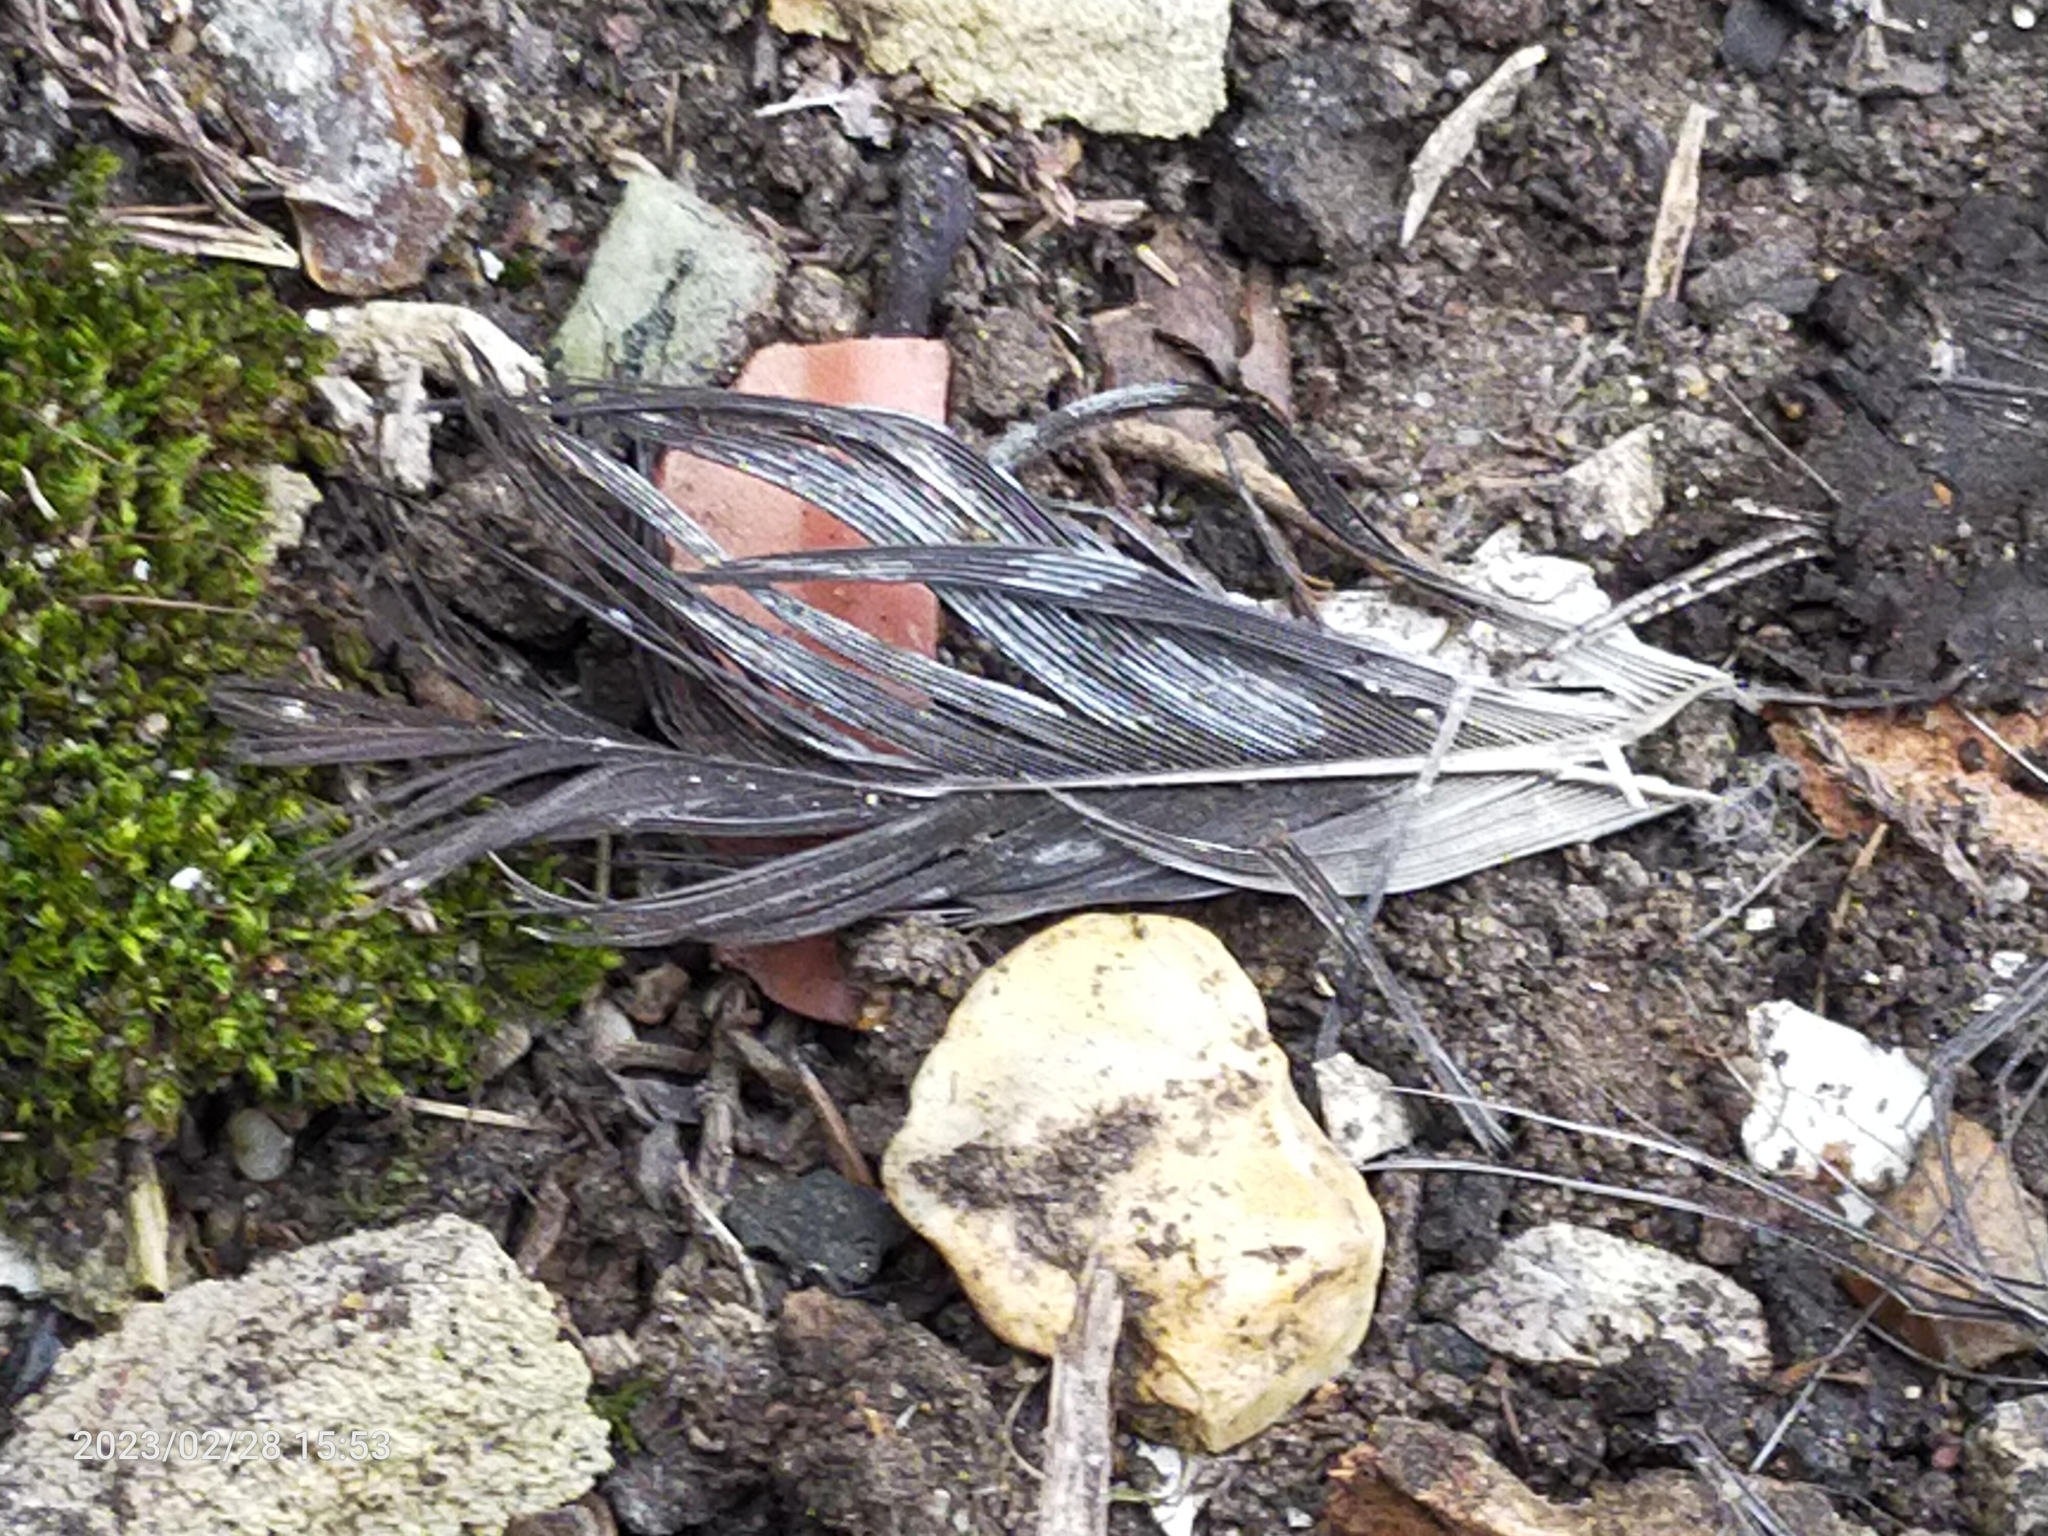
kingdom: Animalia
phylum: Chordata
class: Aves
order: Columbiformes
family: Columbidae
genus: Columba
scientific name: Columba palumbus
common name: Common wood pigeon
